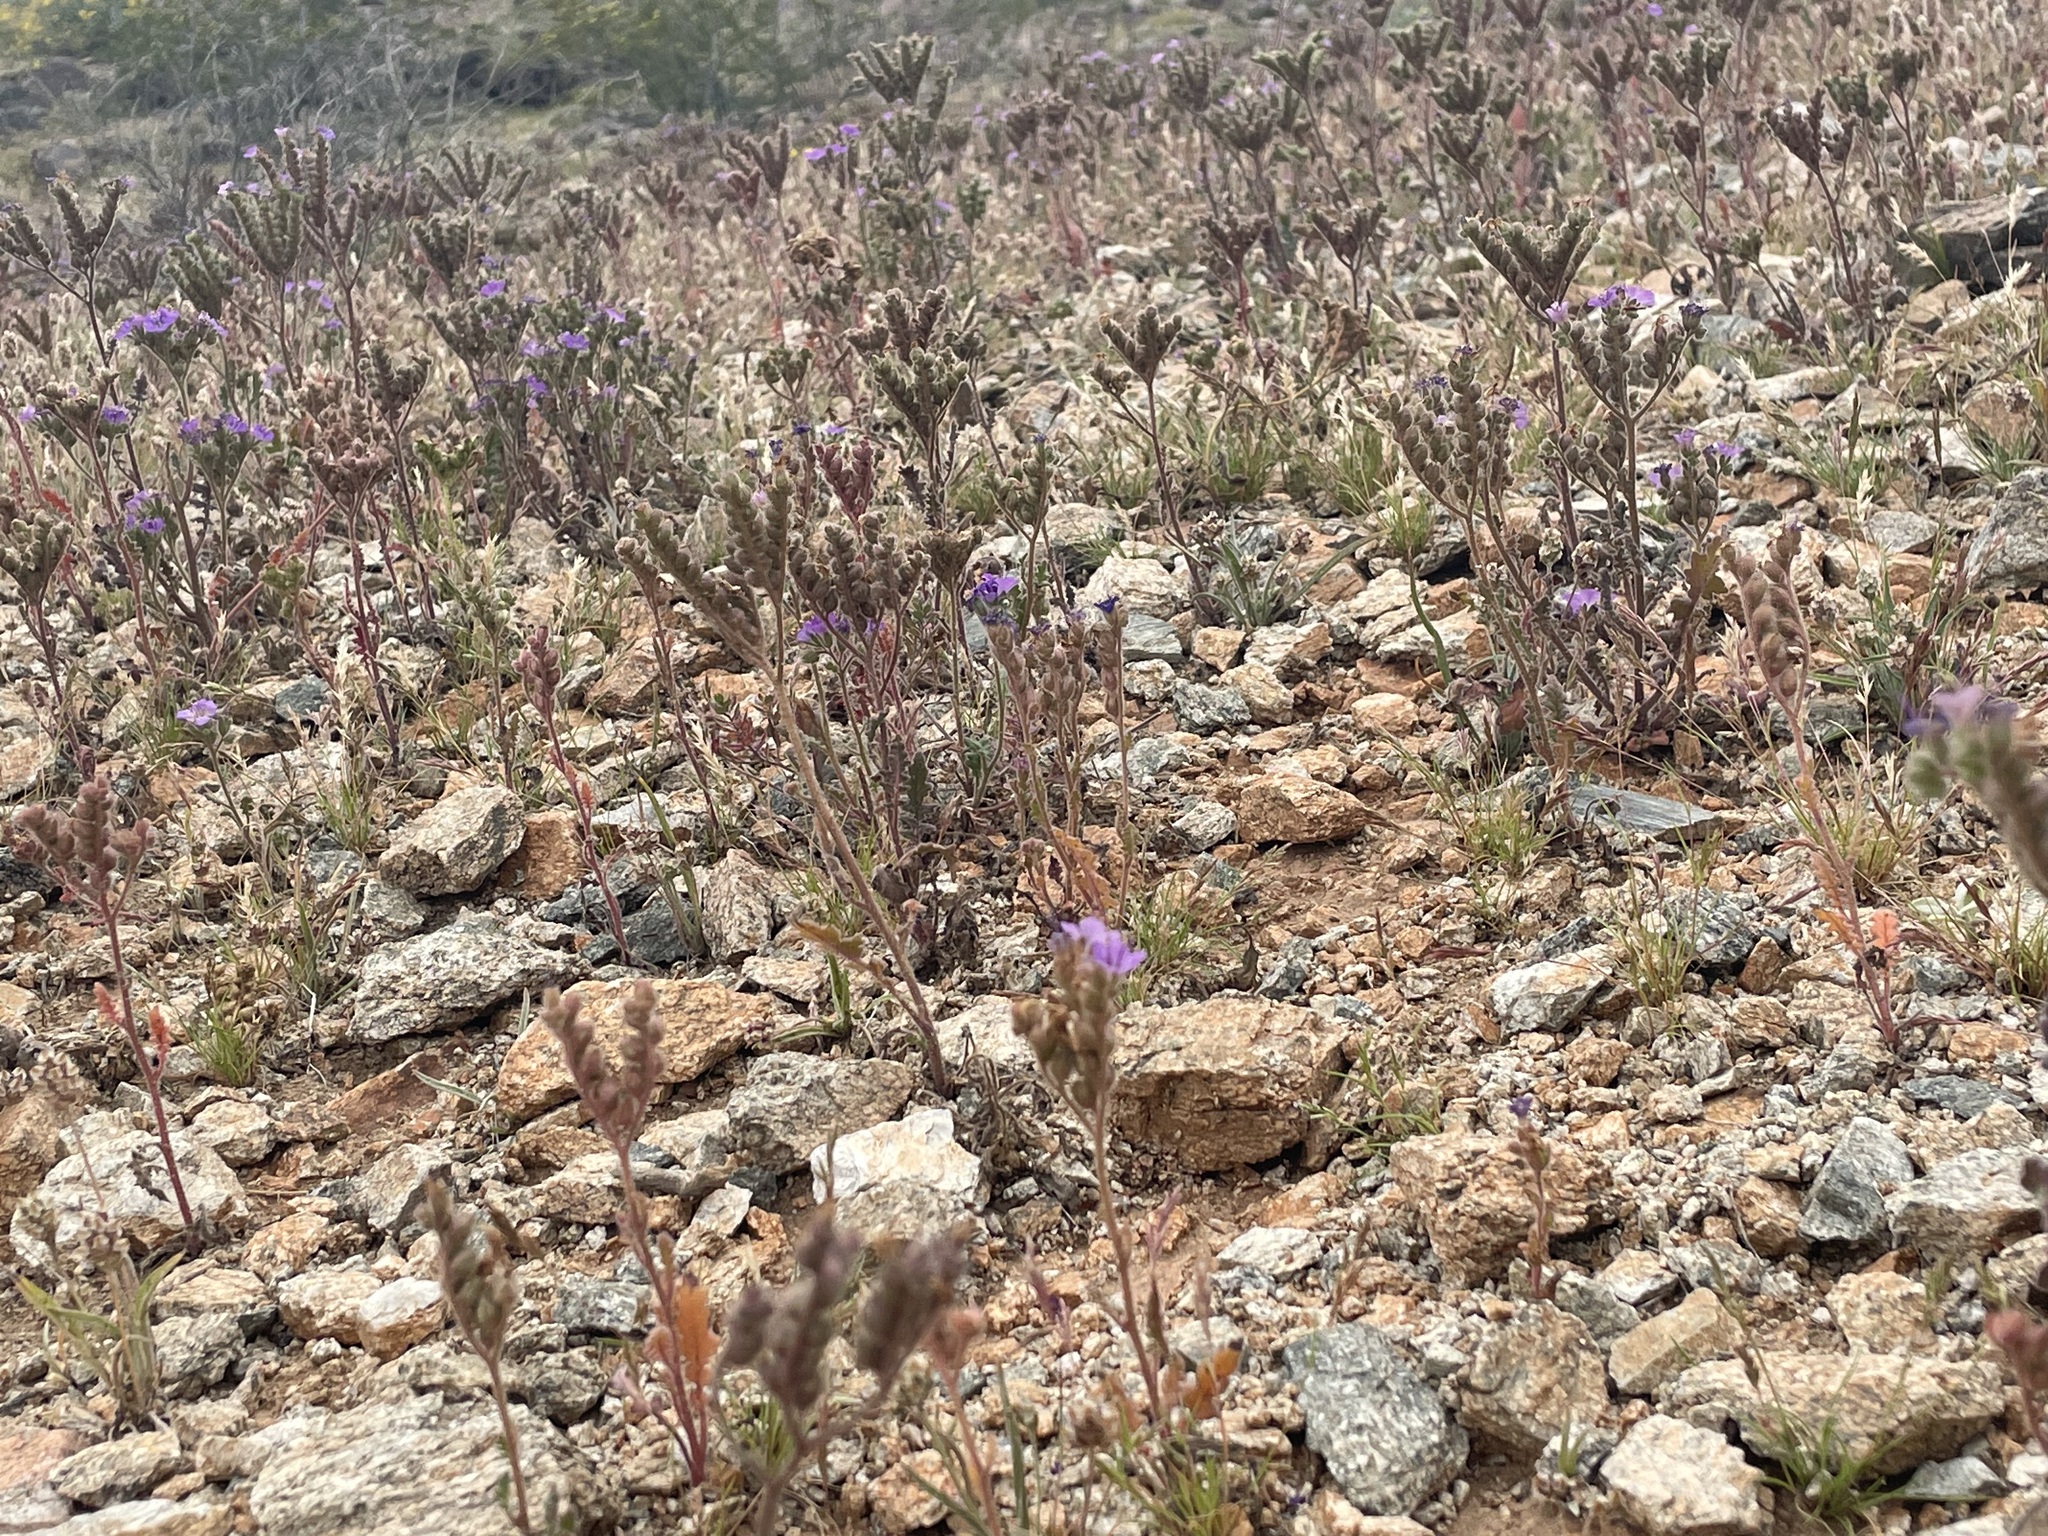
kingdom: Plantae
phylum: Tracheophyta
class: Magnoliopsida
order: Boraginales
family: Hydrophyllaceae
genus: Phacelia
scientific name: Phacelia crenulata
